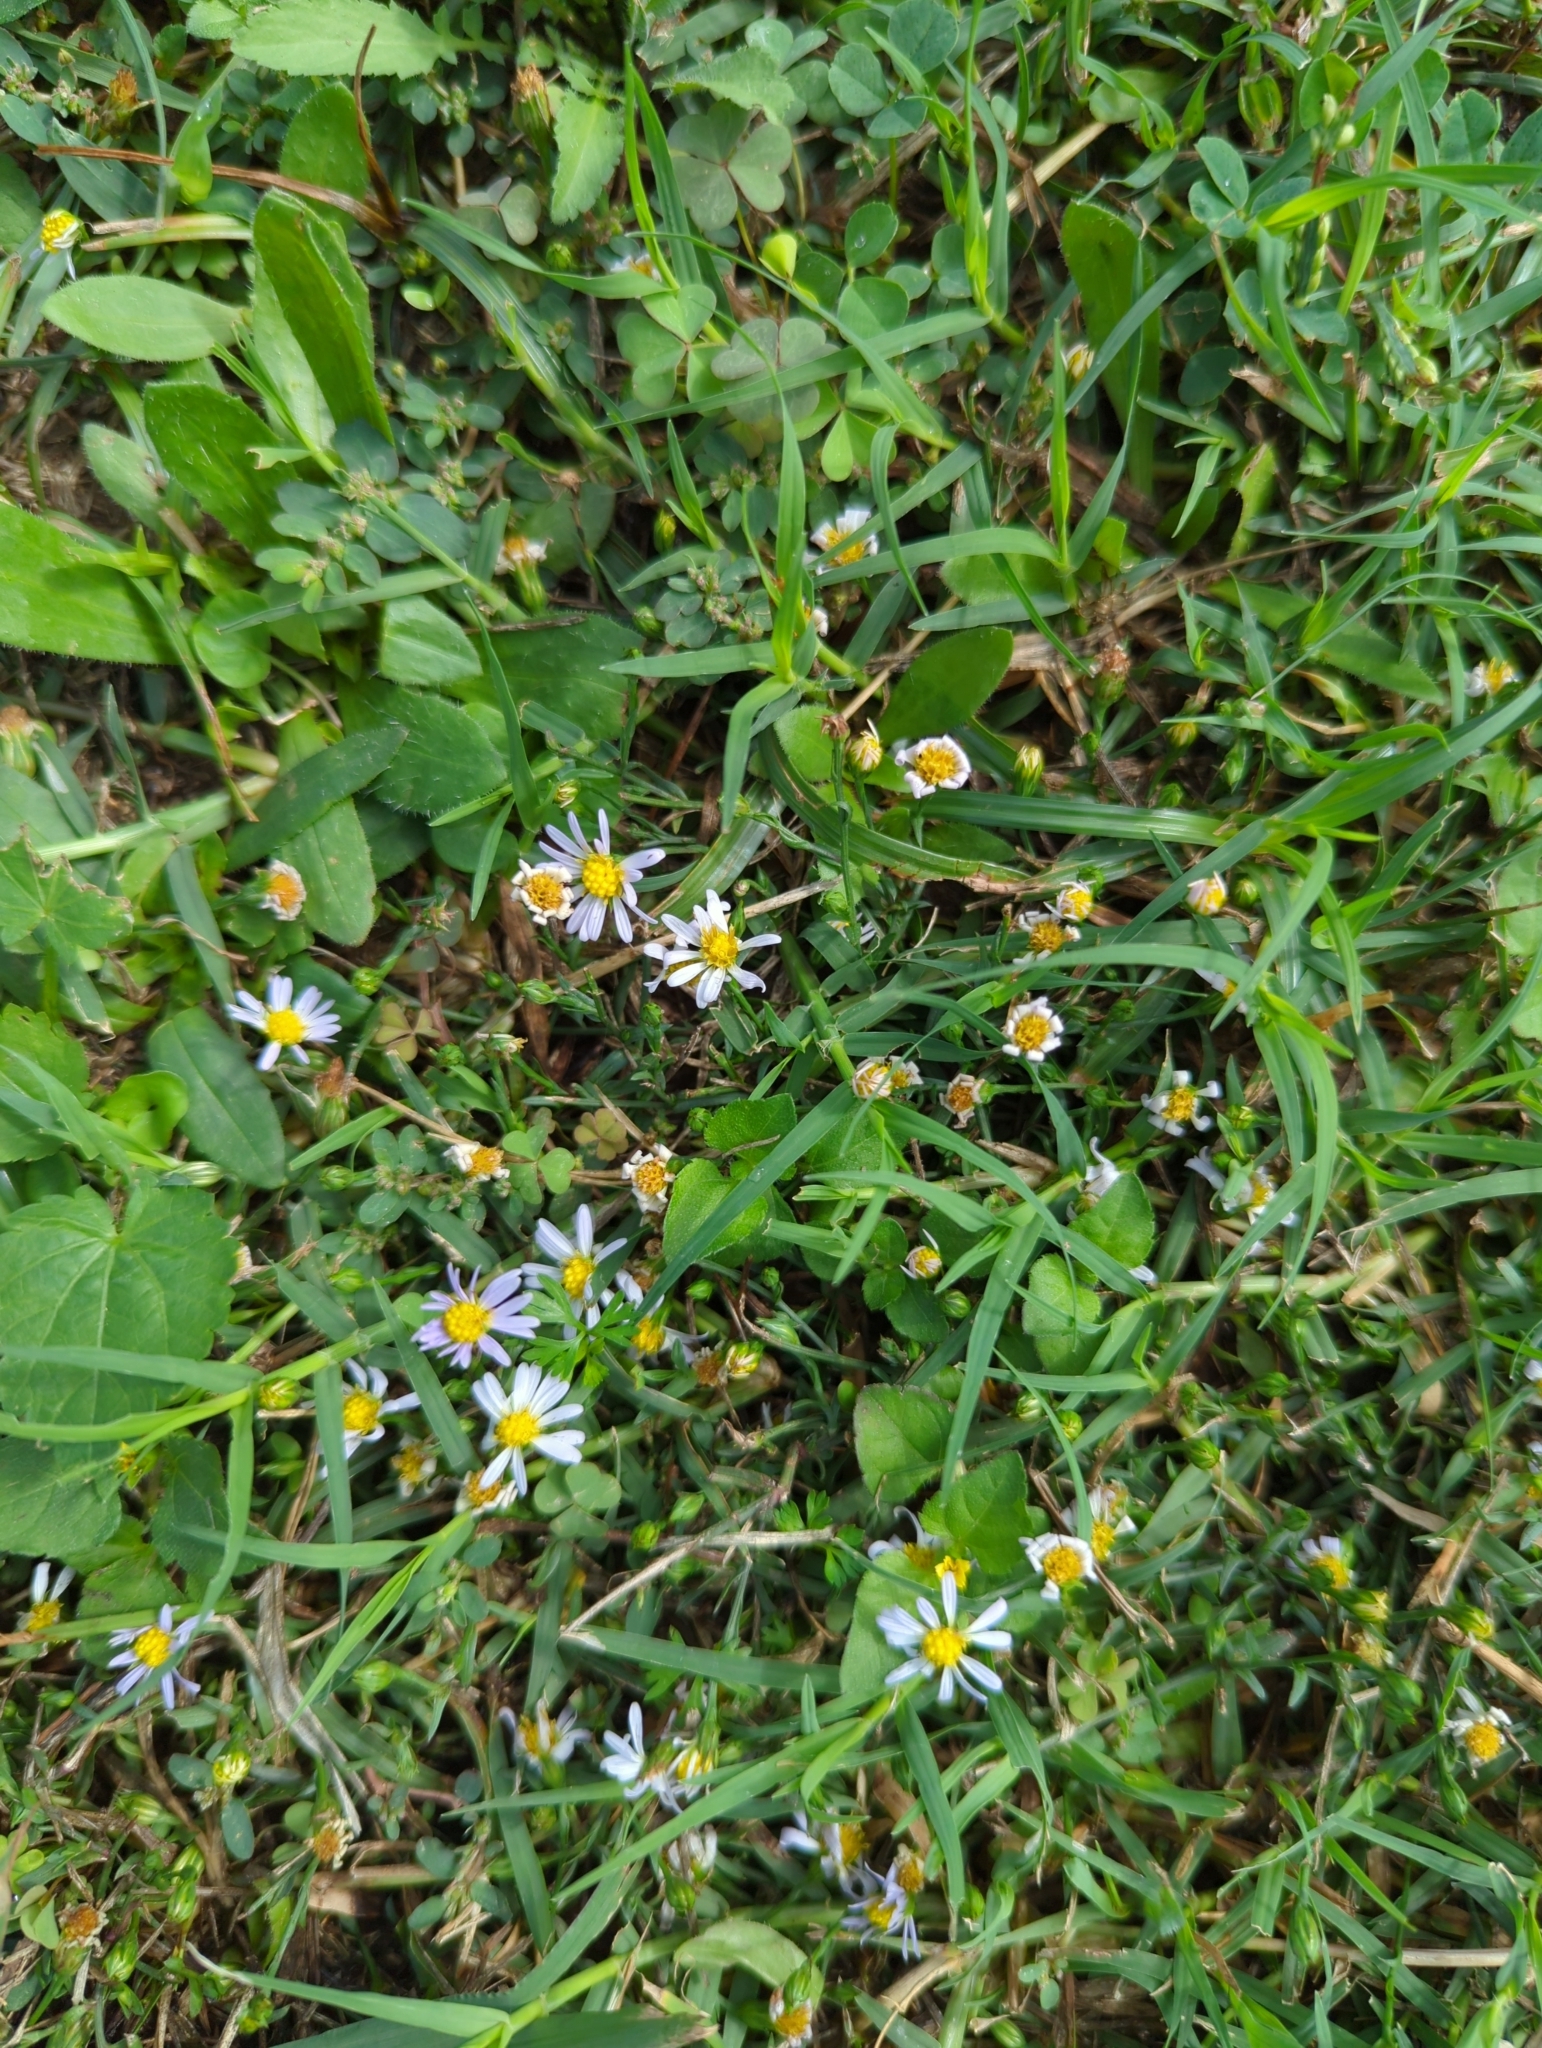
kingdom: Plantae
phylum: Tracheophyta
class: Magnoliopsida
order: Asterales
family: Asteraceae
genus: Symphyotrichum
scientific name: Symphyotrichum divaricatum
